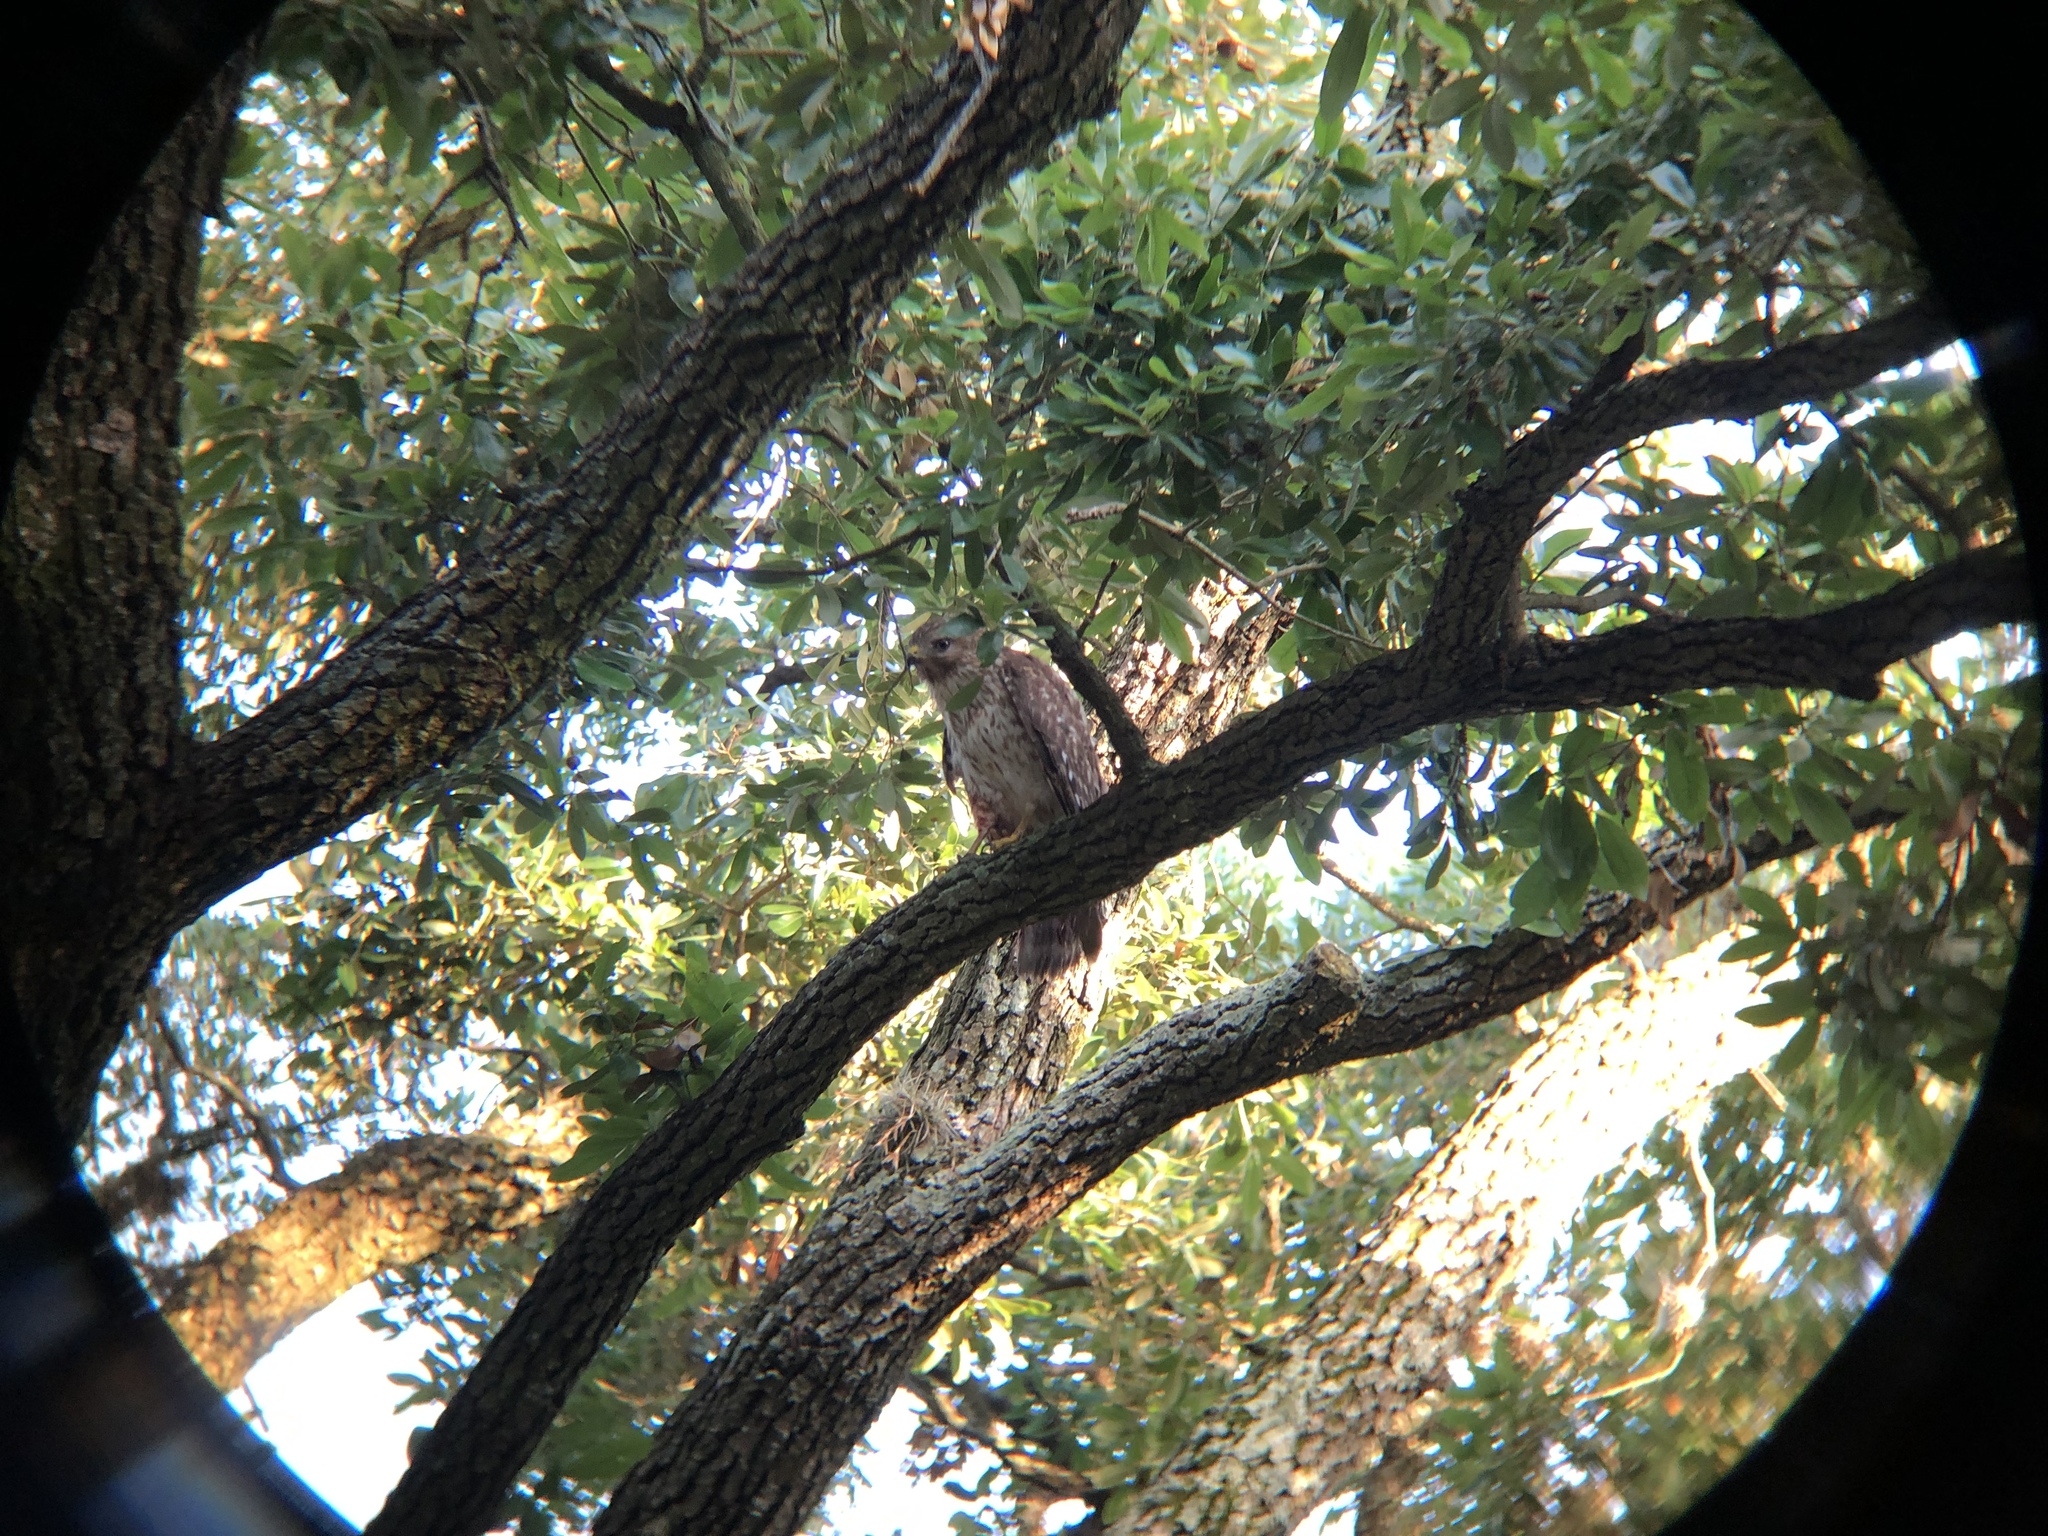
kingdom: Animalia
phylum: Chordata
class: Aves
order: Accipitriformes
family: Accipitridae
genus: Buteo
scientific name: Buteo lineatus
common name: Red-shouldered hawk
